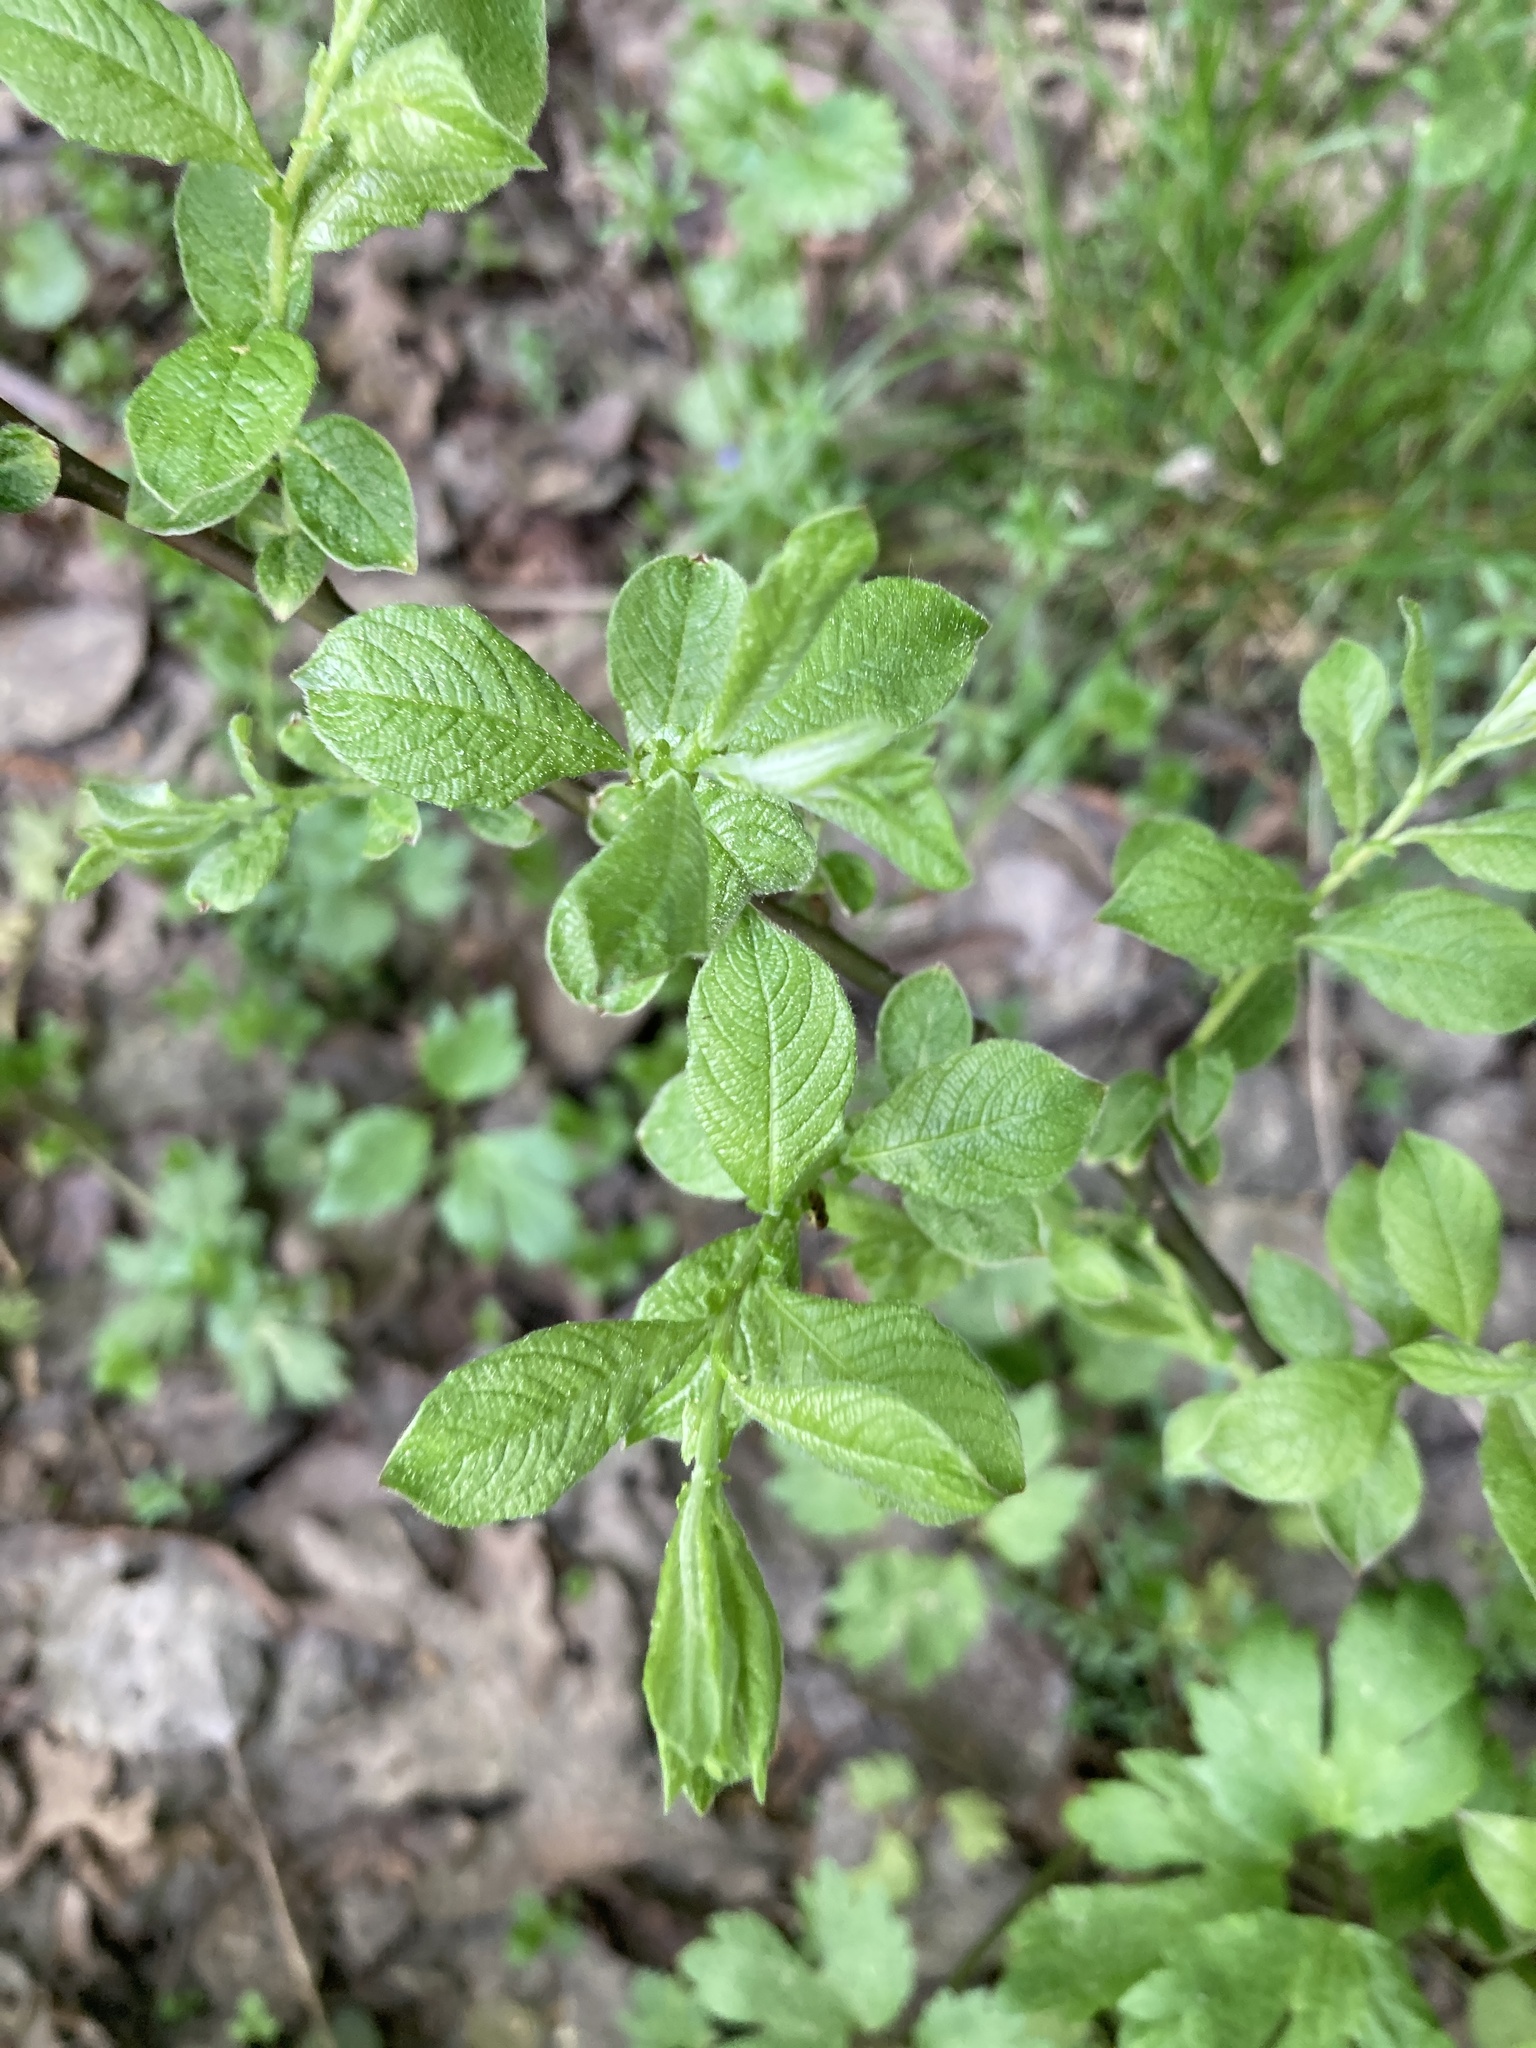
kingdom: Plantae
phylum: Tracheophyta
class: Magnoliopsida
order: Malpighiales
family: Salicaceae
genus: Salix
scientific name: Salix aurita
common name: Eared willow
